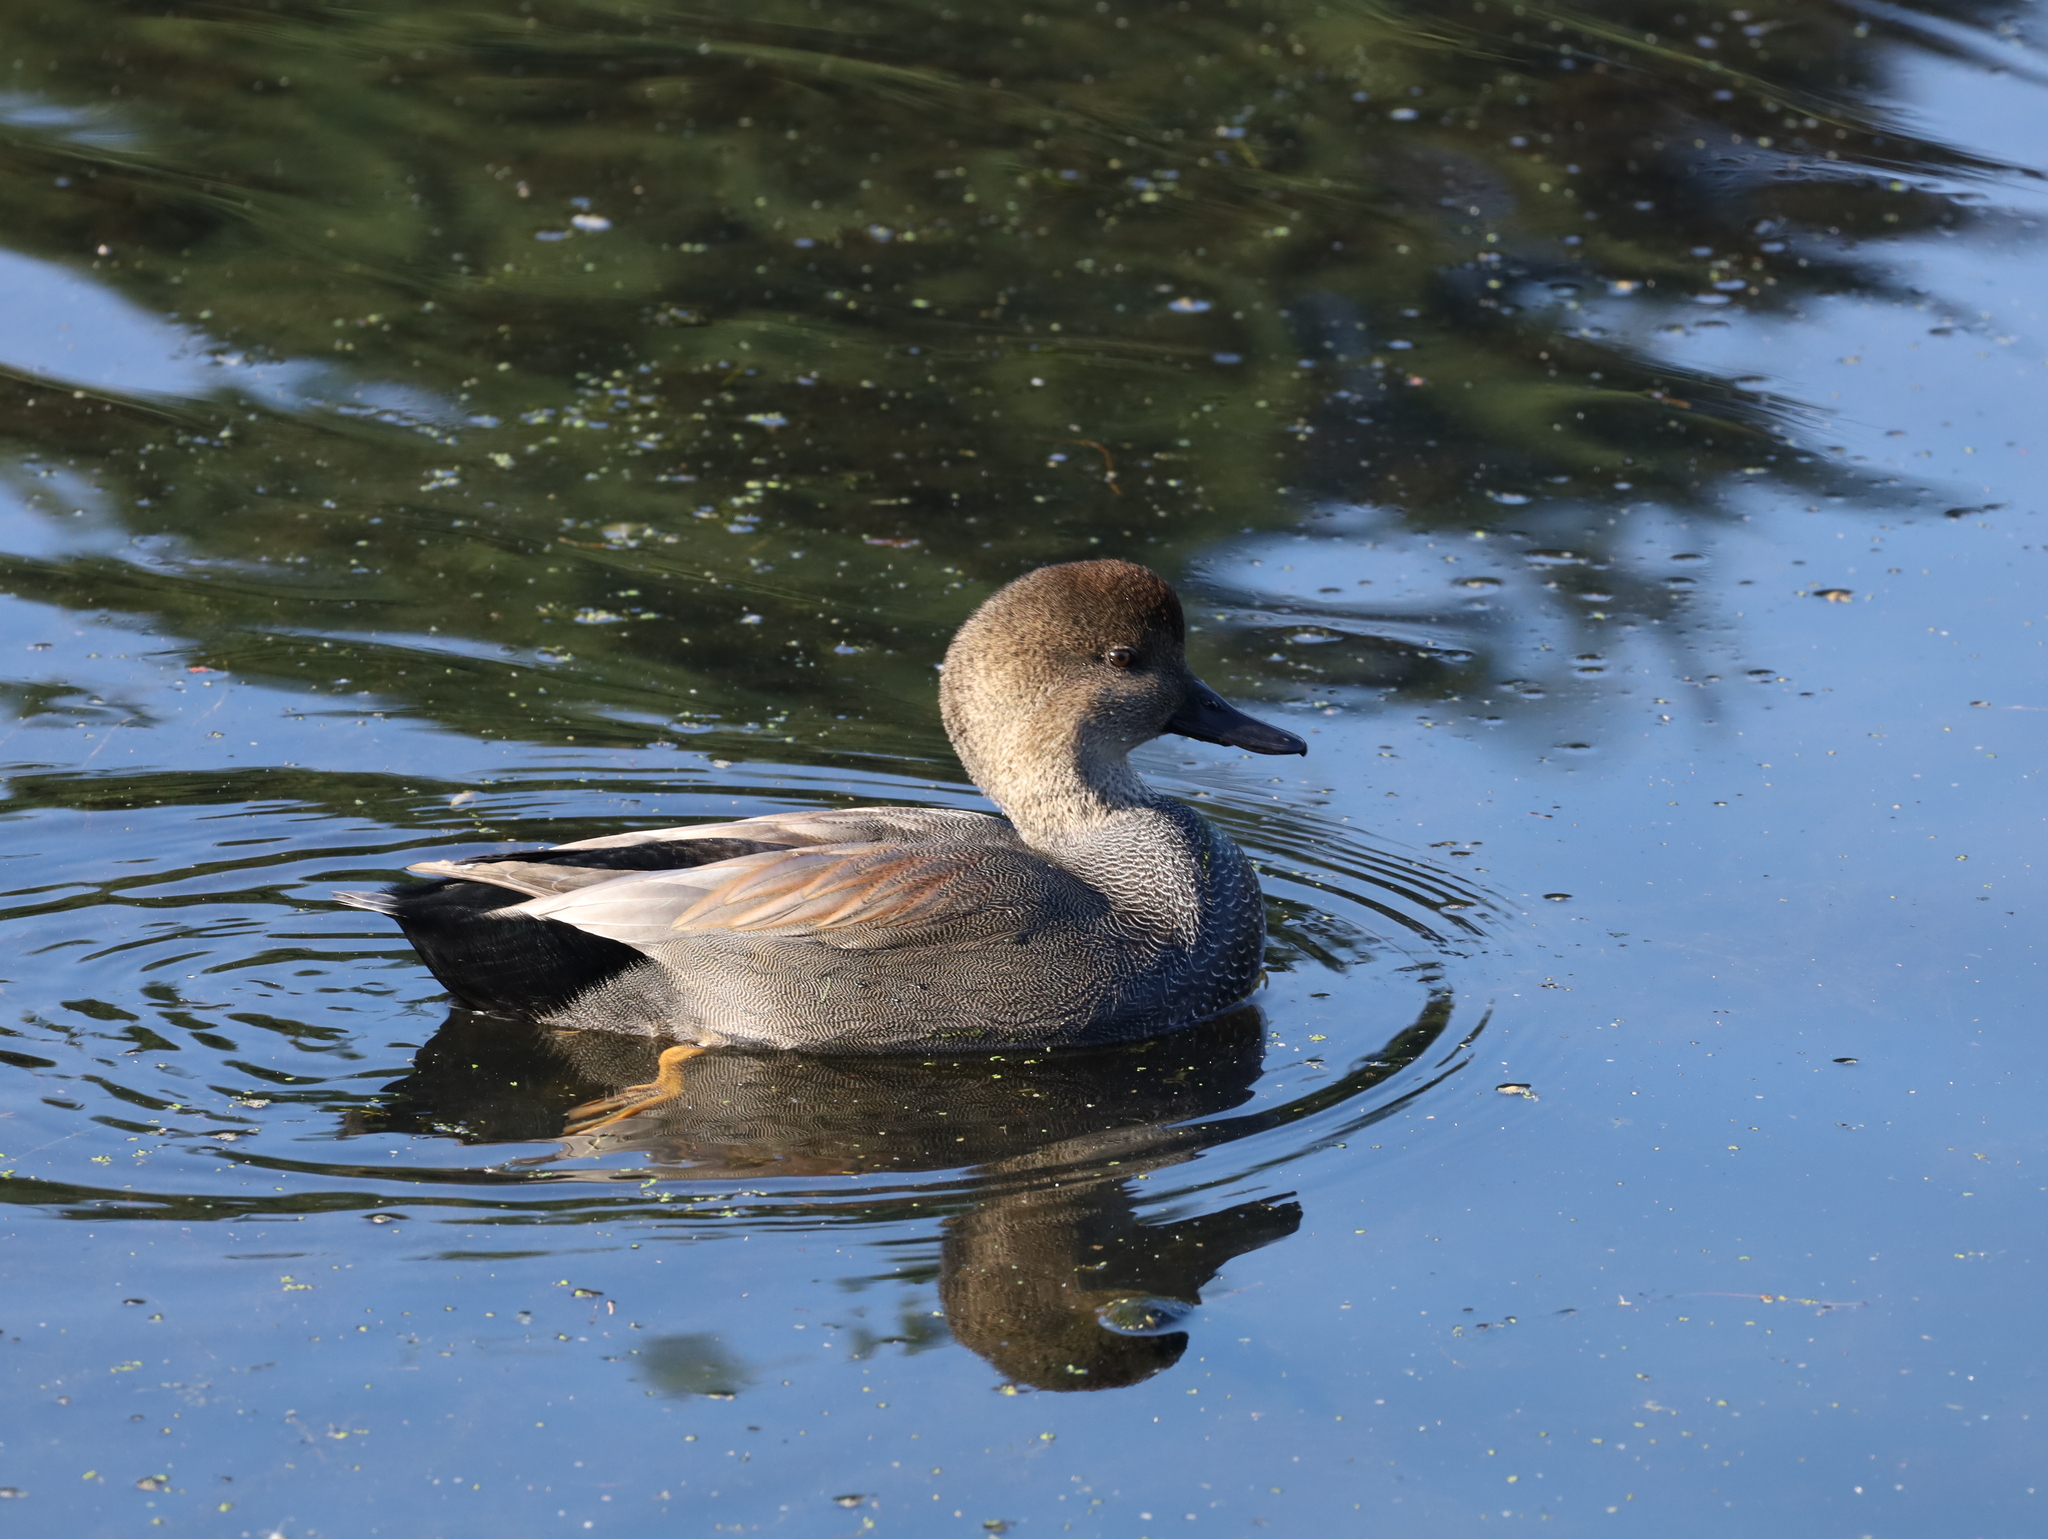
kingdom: Animalia
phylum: Chordata
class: Aves
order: Anseriformes
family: Anatidae
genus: Mareca
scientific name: Mareca strepera
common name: Gadwall
